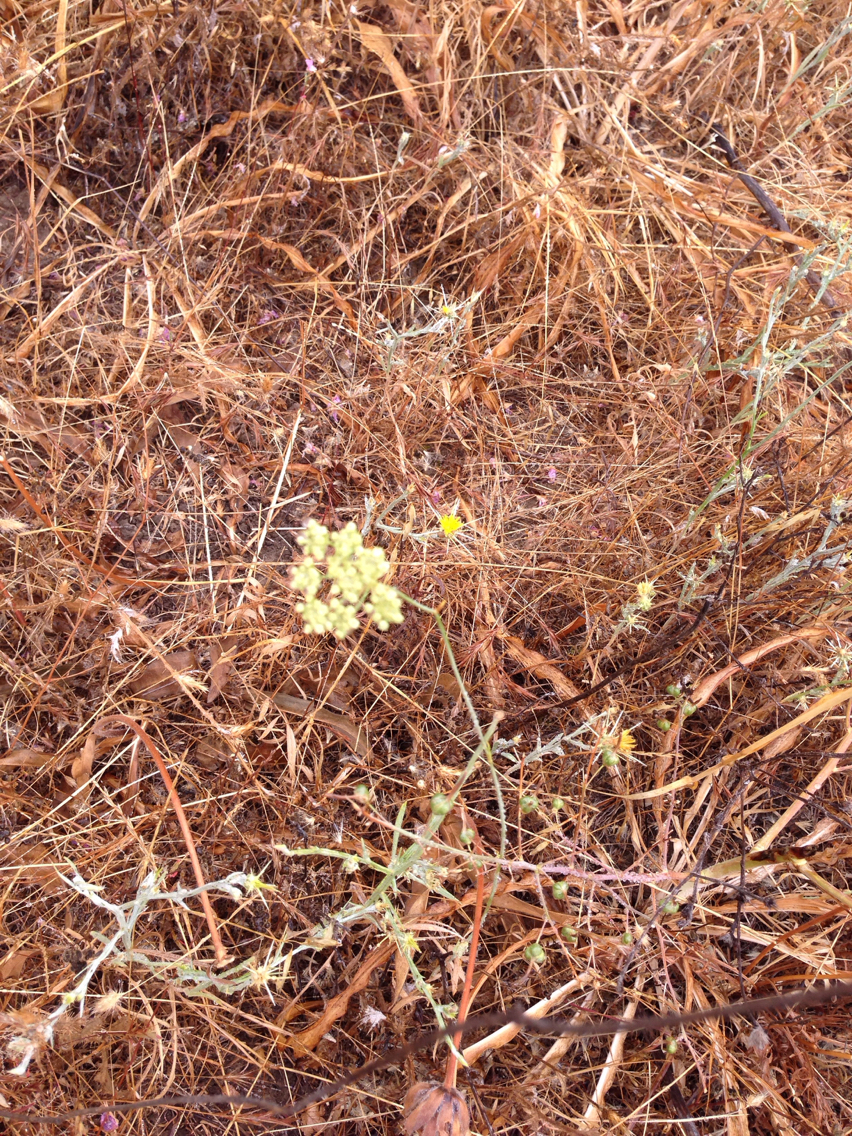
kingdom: Plantae
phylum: Tracheophyta
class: Magnoliopsida
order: Apiales
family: Apiaceae
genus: Perideridia
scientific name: Perideridia kelloggii
